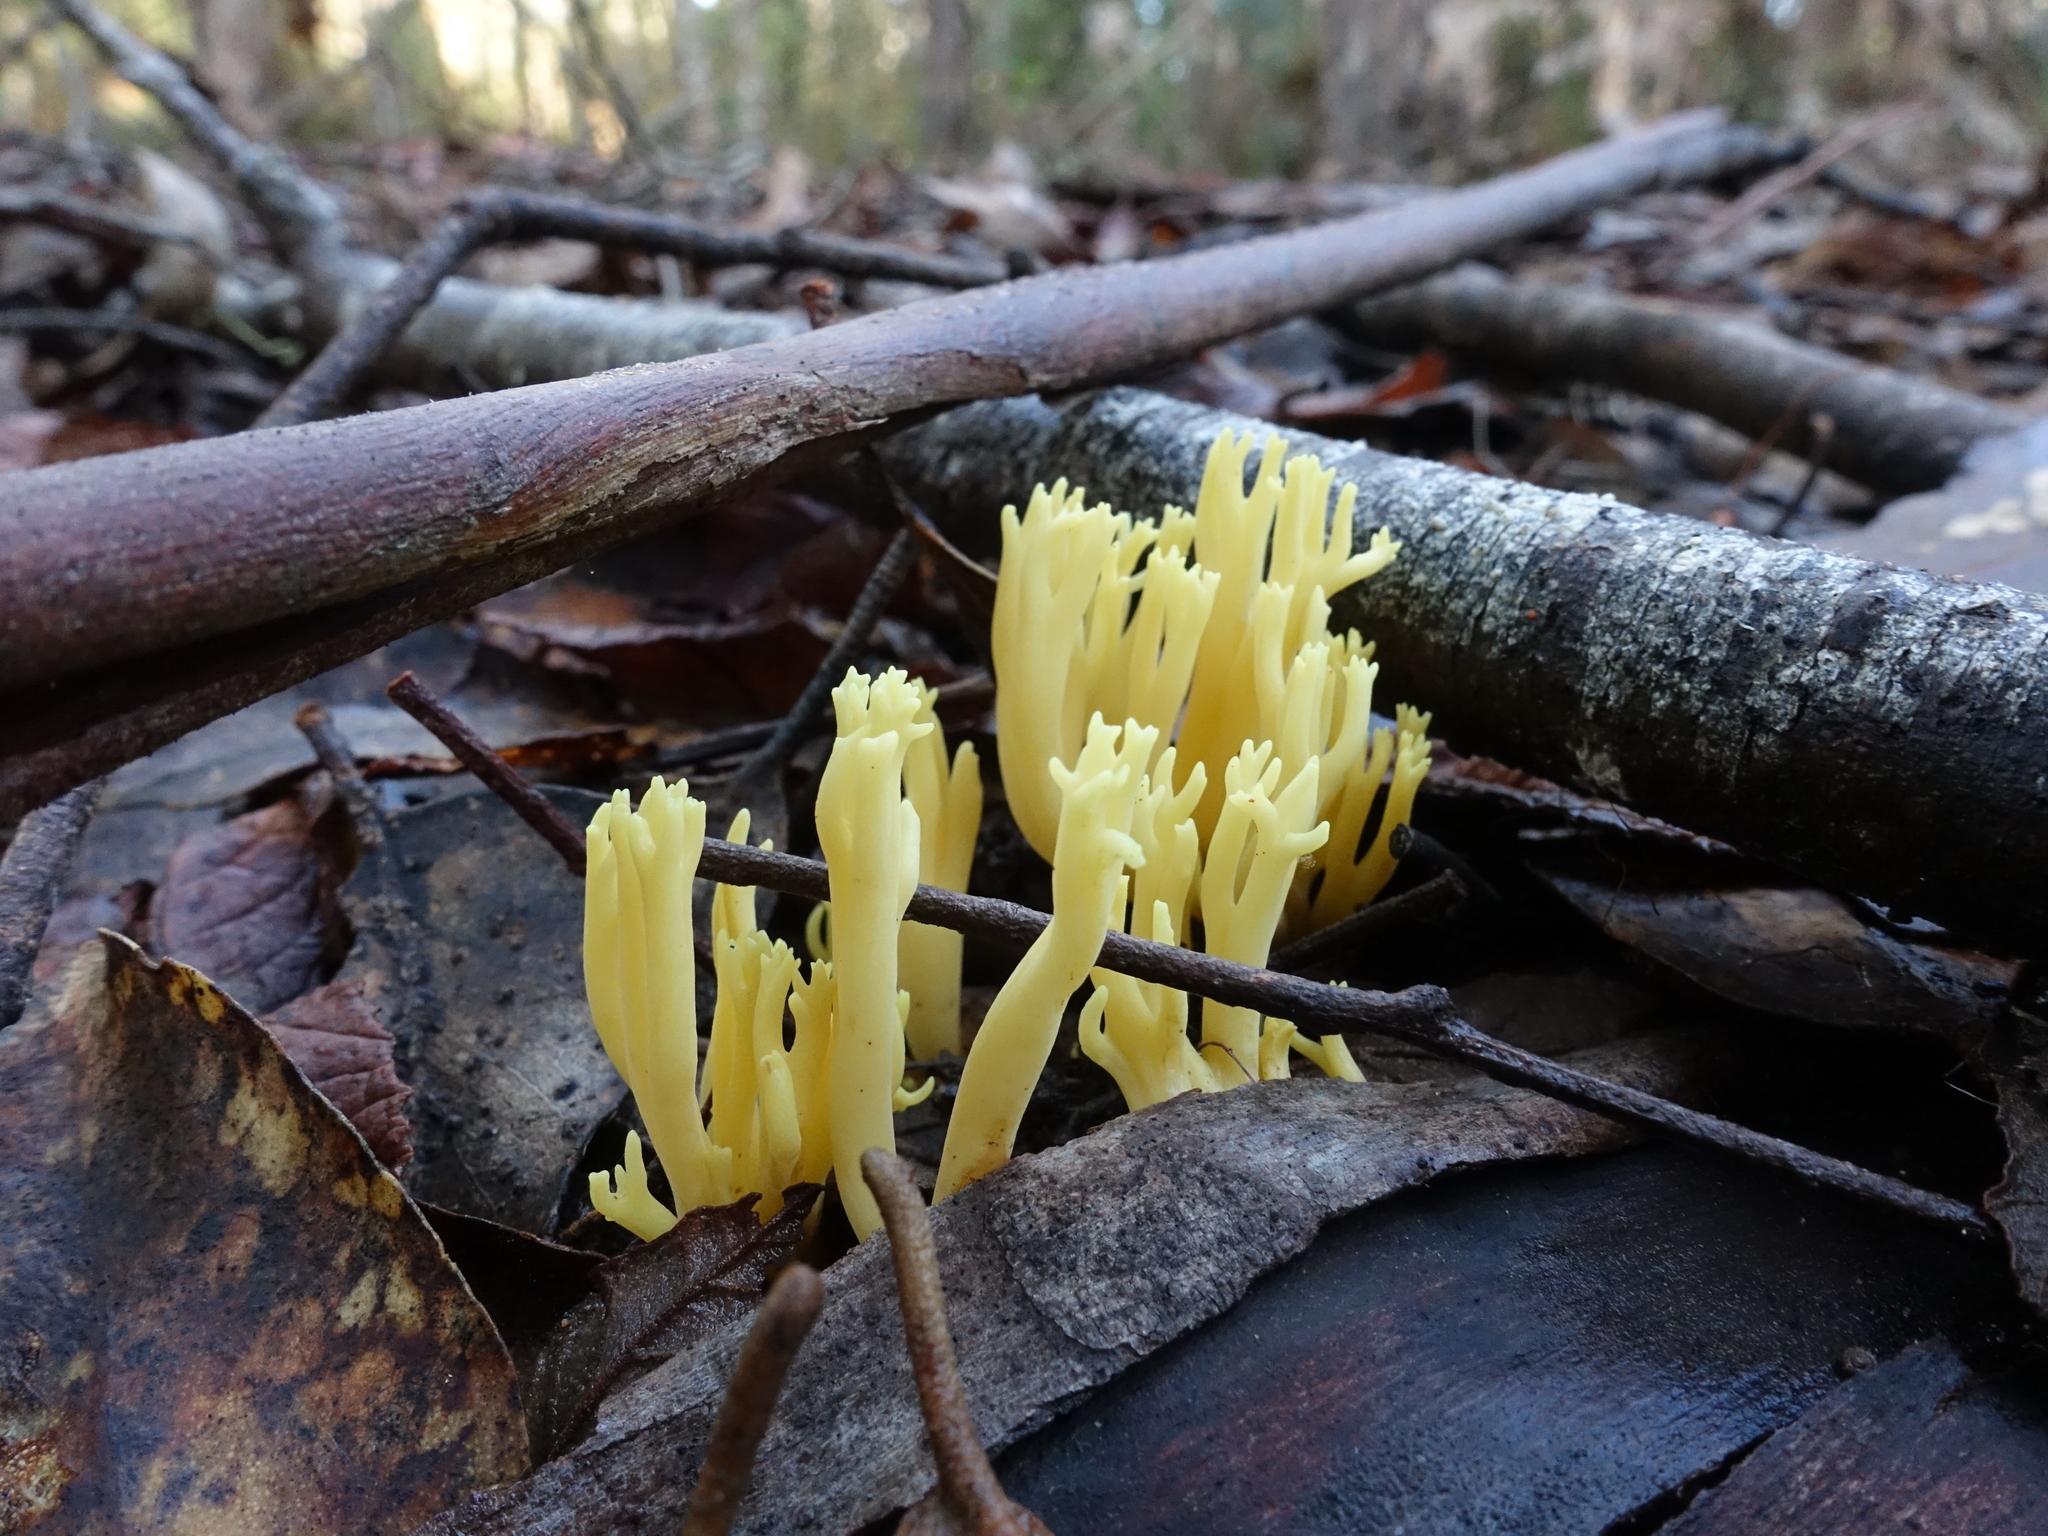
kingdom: Fungi
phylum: Basidiomycota
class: Agaricomycetes
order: Gomphales
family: Gomphaceae
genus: Ramaria
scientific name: Ramaria lorithamnus
